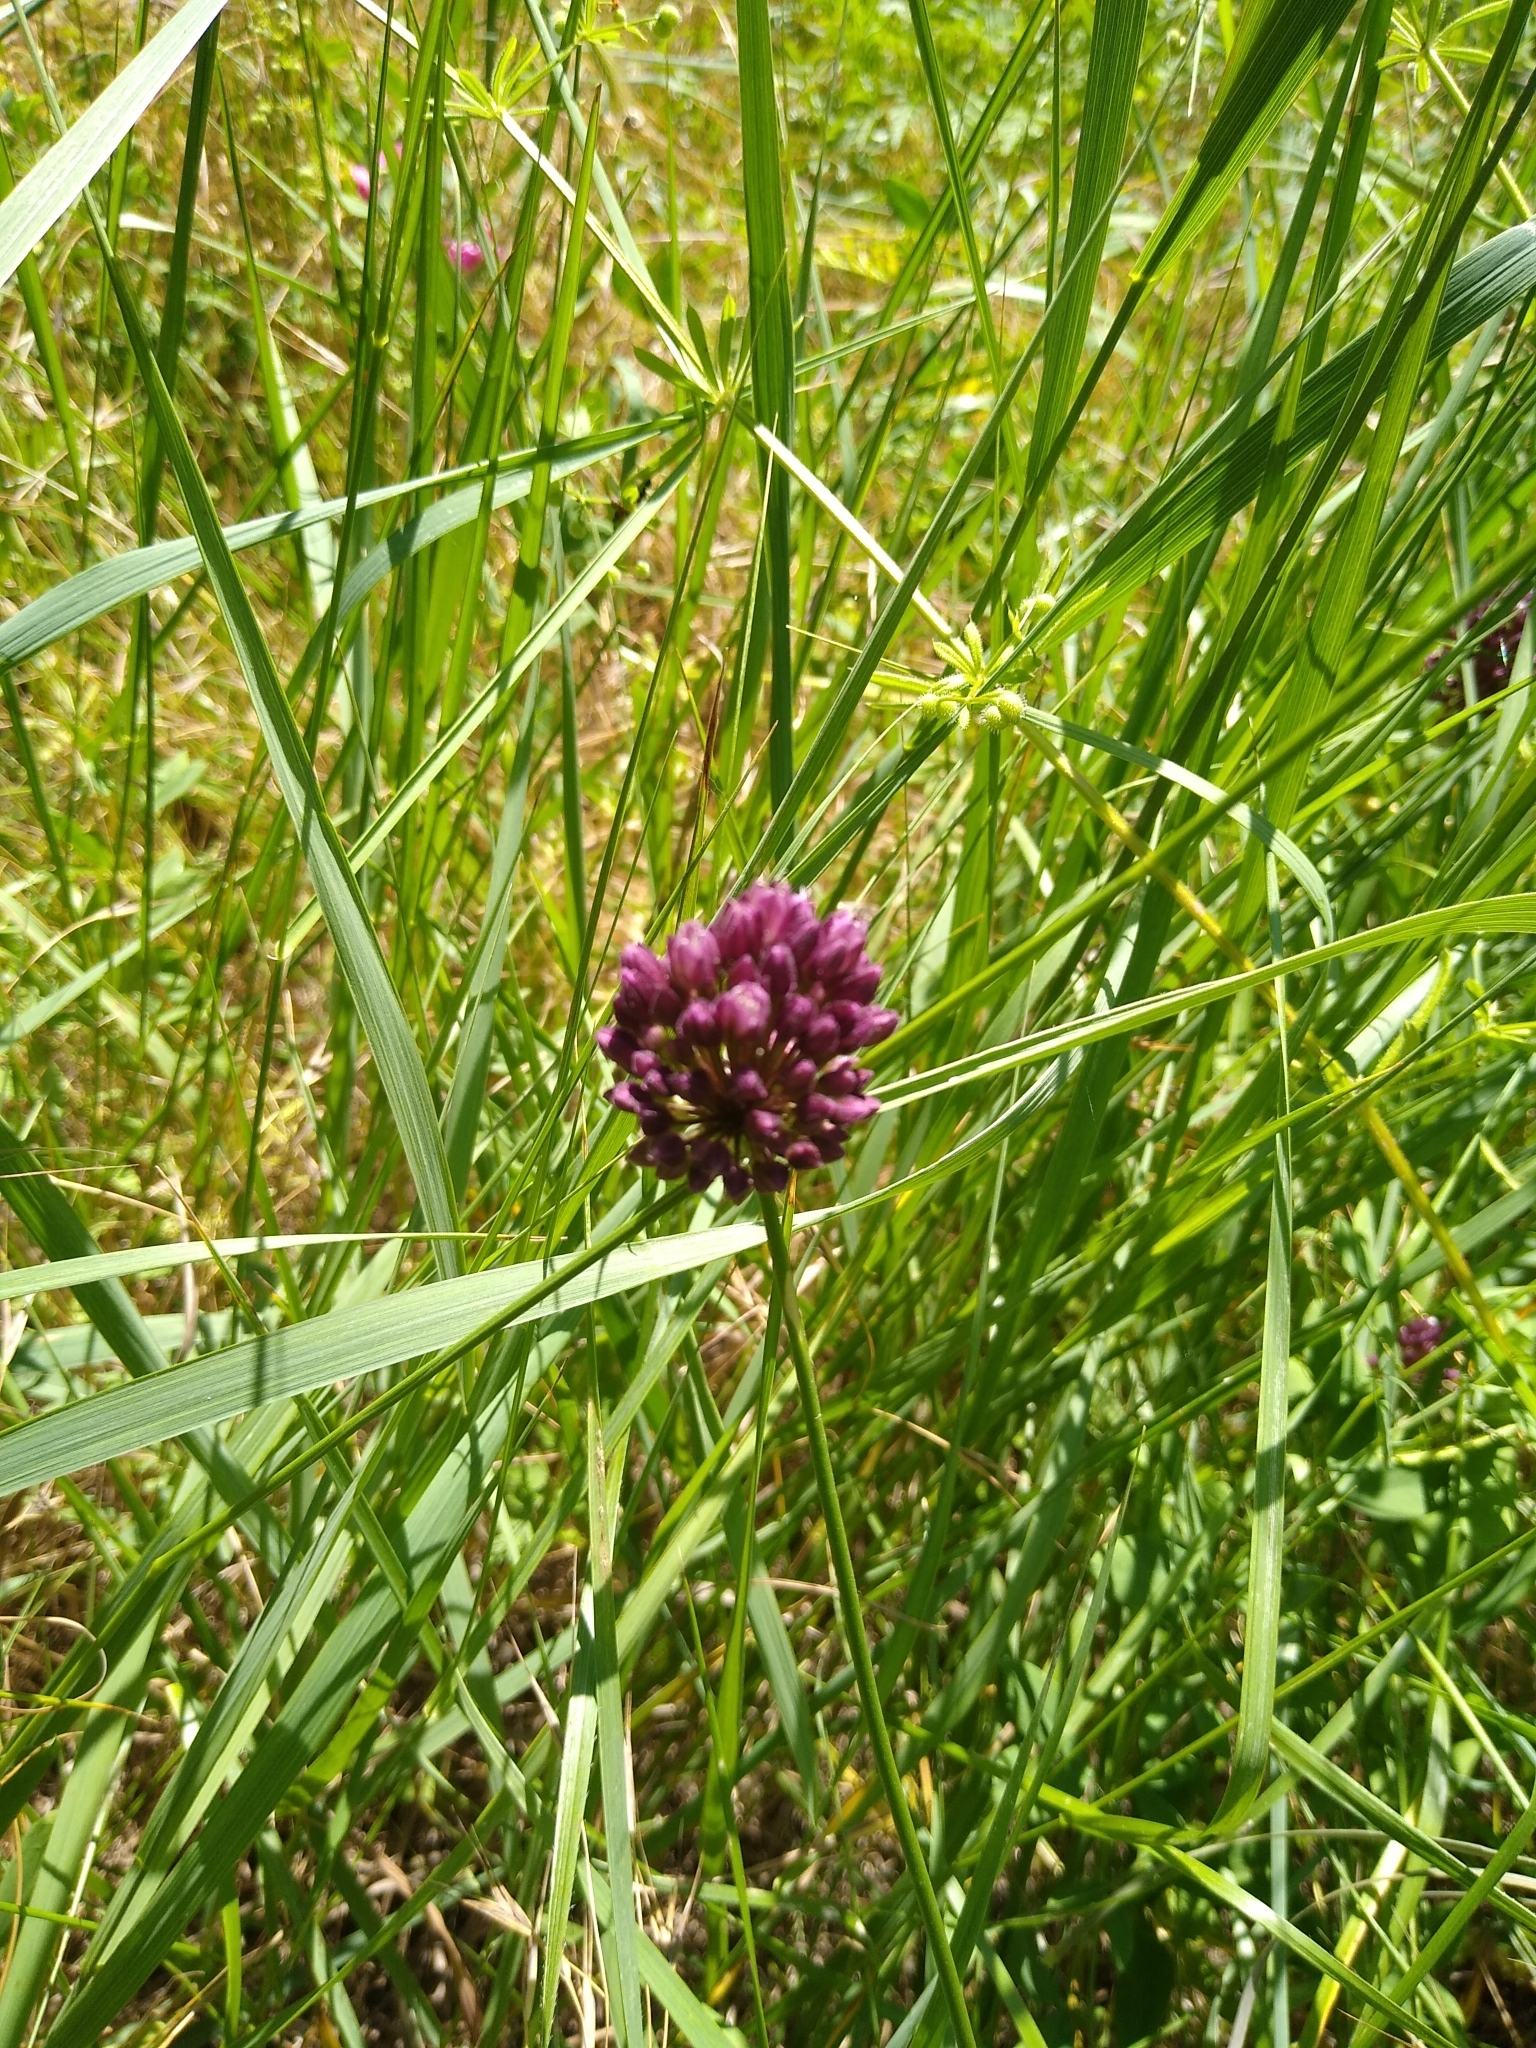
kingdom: Plantae
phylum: Tracheophyta
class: Liliopsida
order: Asparagales
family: Amaryllidaceae
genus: Allium
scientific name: Allium rotundum
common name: Sand leek
